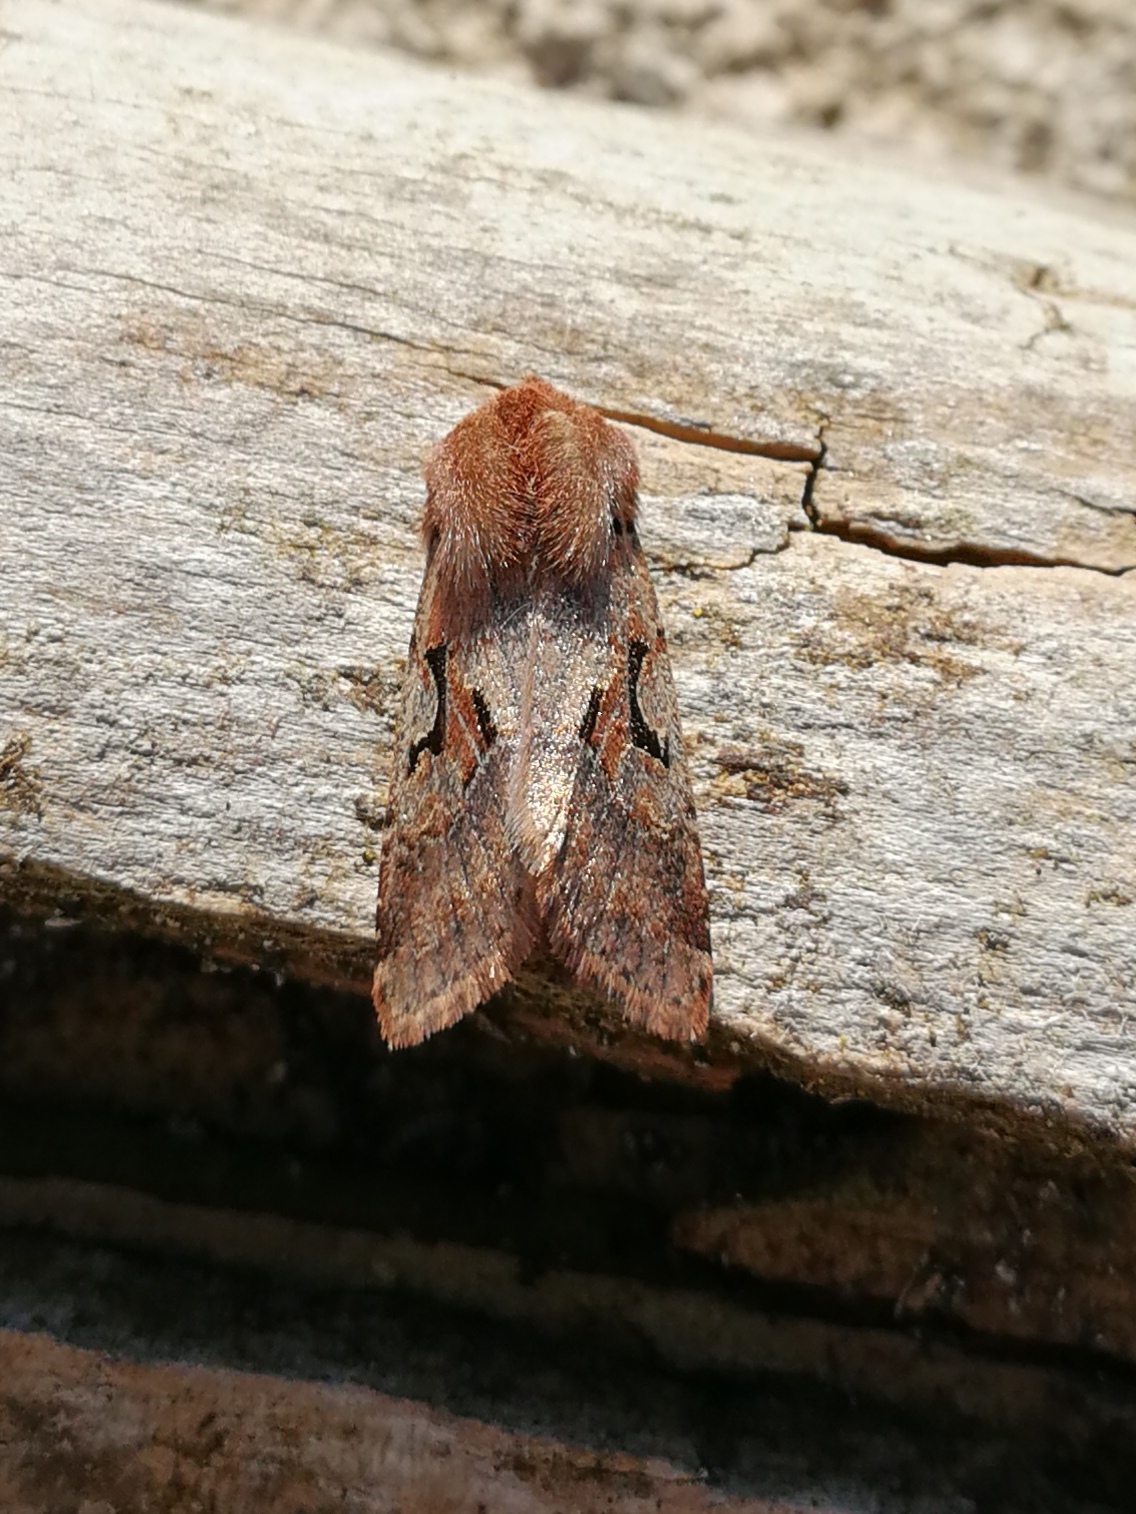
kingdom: Animalia
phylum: Arthropoda
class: Insecta
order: Lepidoptera
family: Noctuidae
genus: Orthosia
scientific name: Orthosia gothica
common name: Hebrew character
